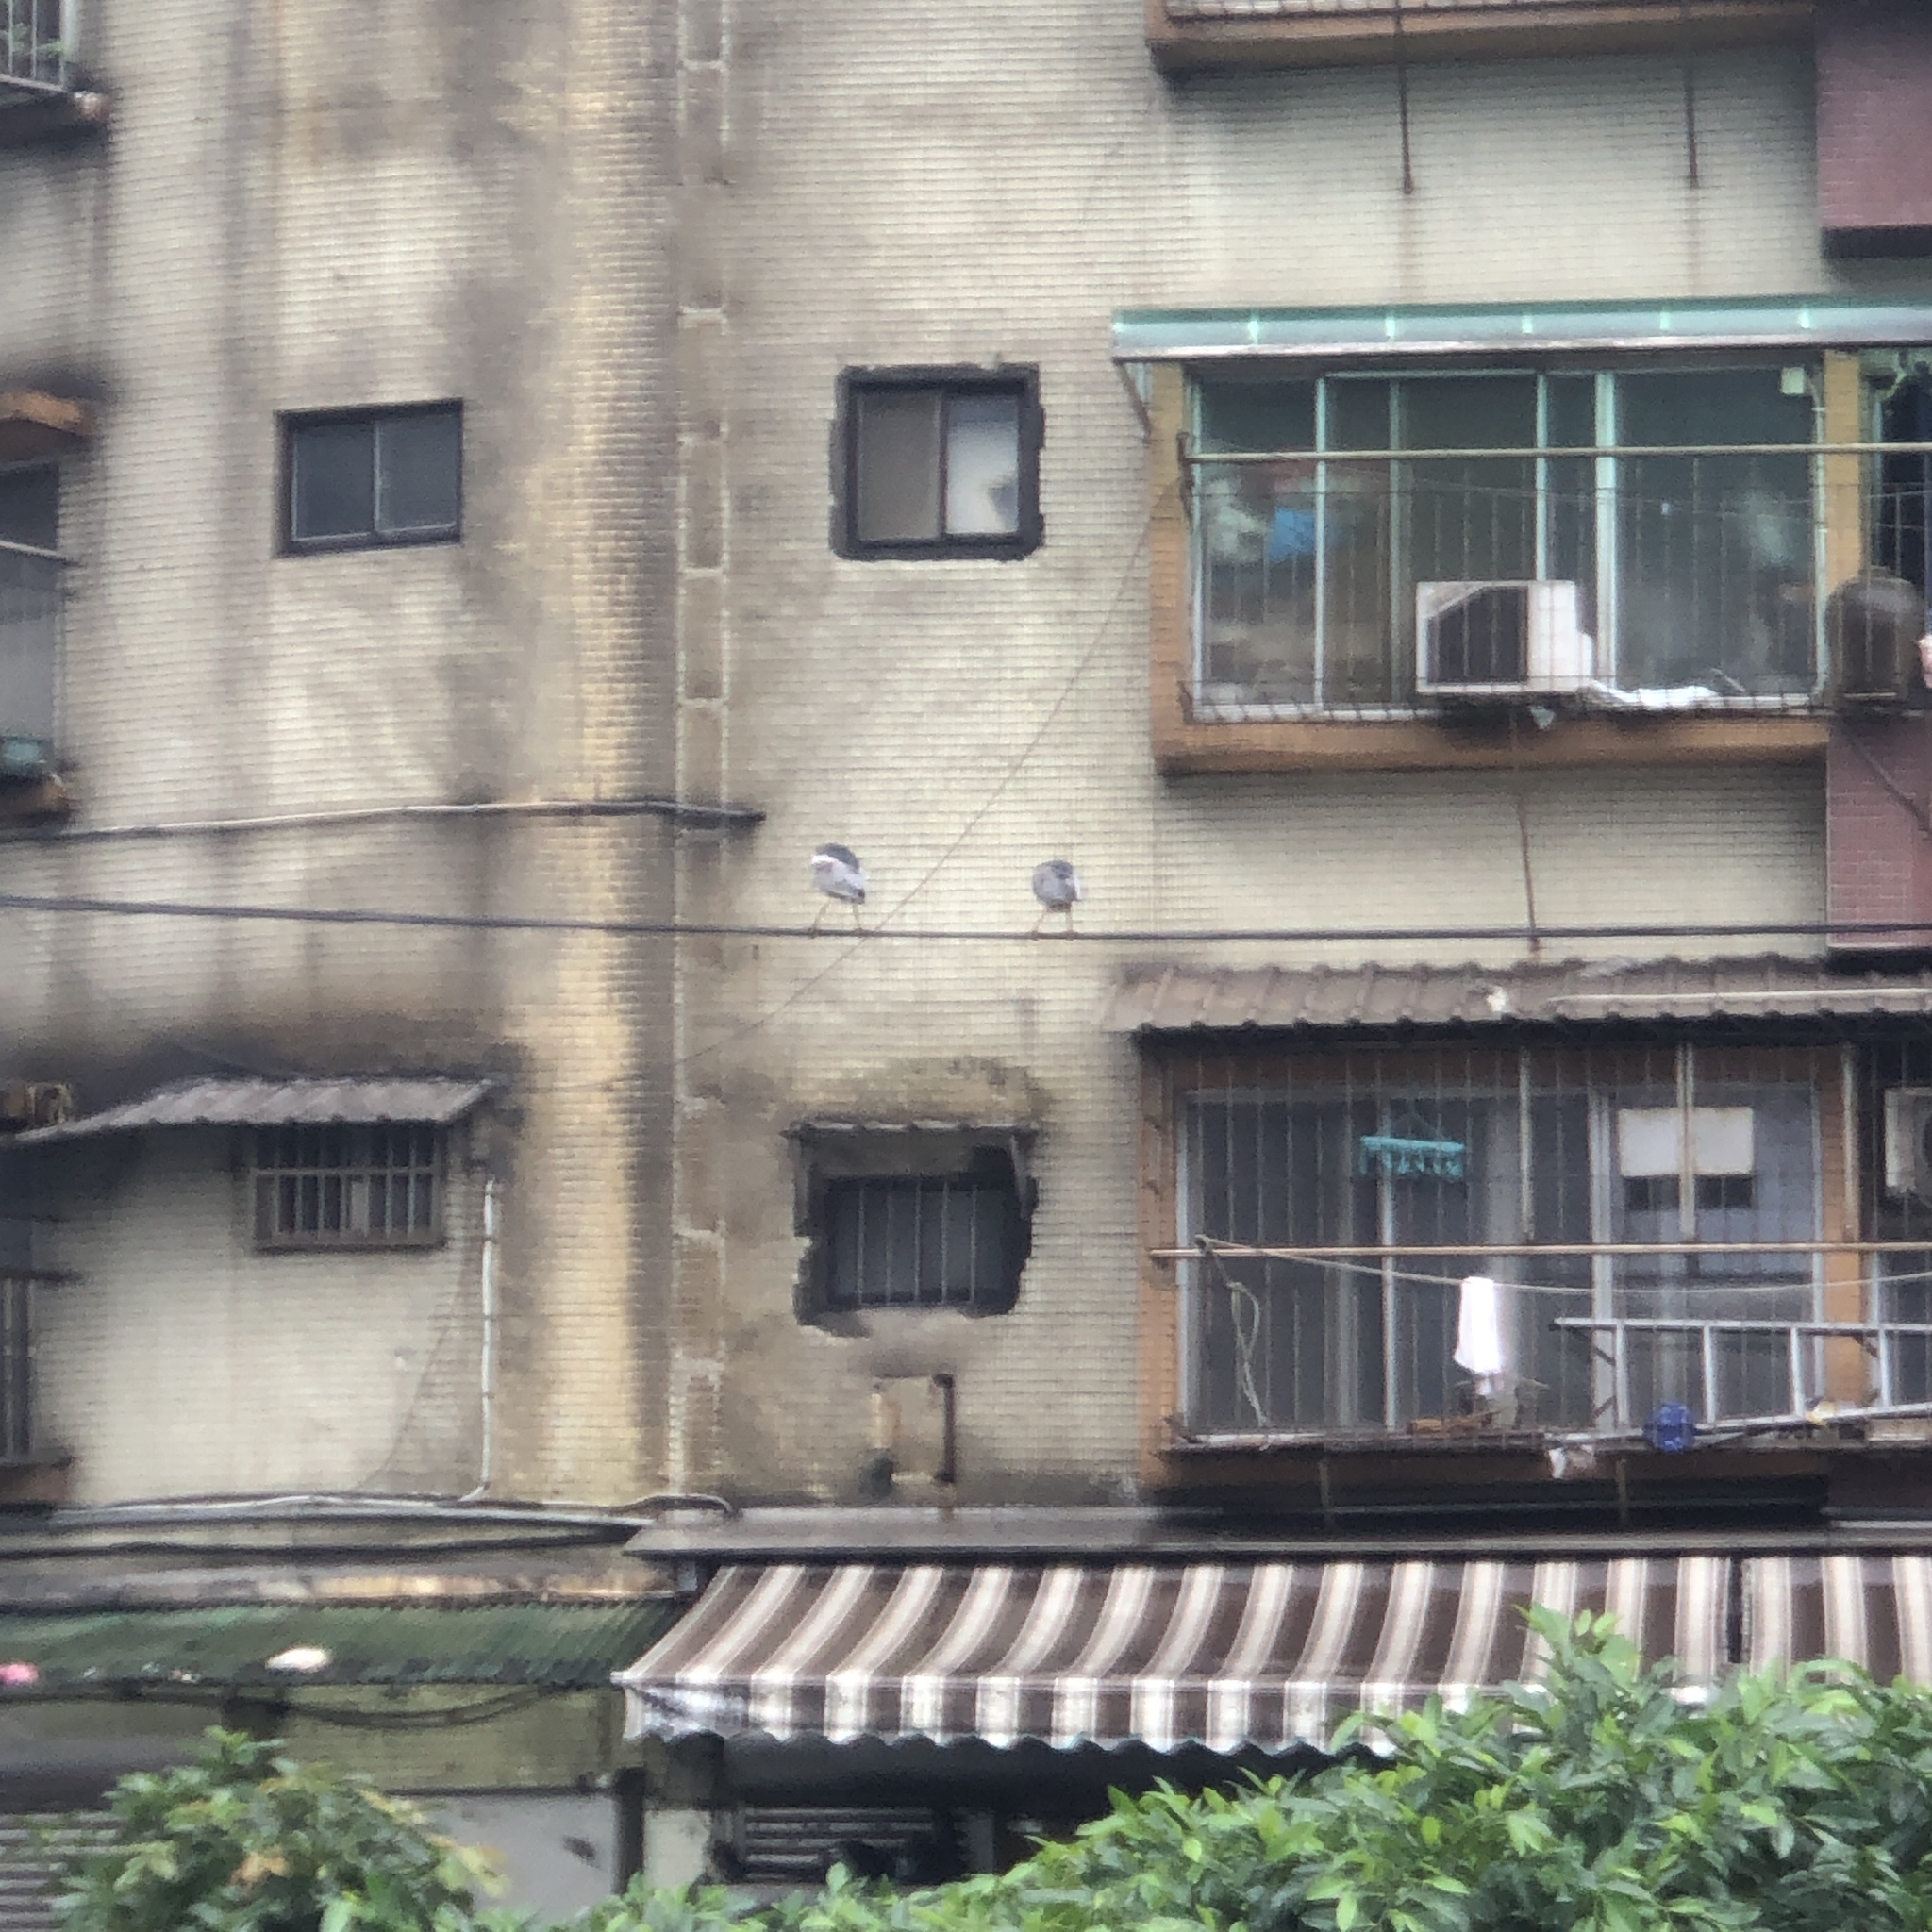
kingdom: Animalia
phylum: Chordata
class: Aves
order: Pelecaniformes
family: Ardeidae
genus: Nycticorax
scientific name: Nycticorax nycticorax
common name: Black-crowned night heron
